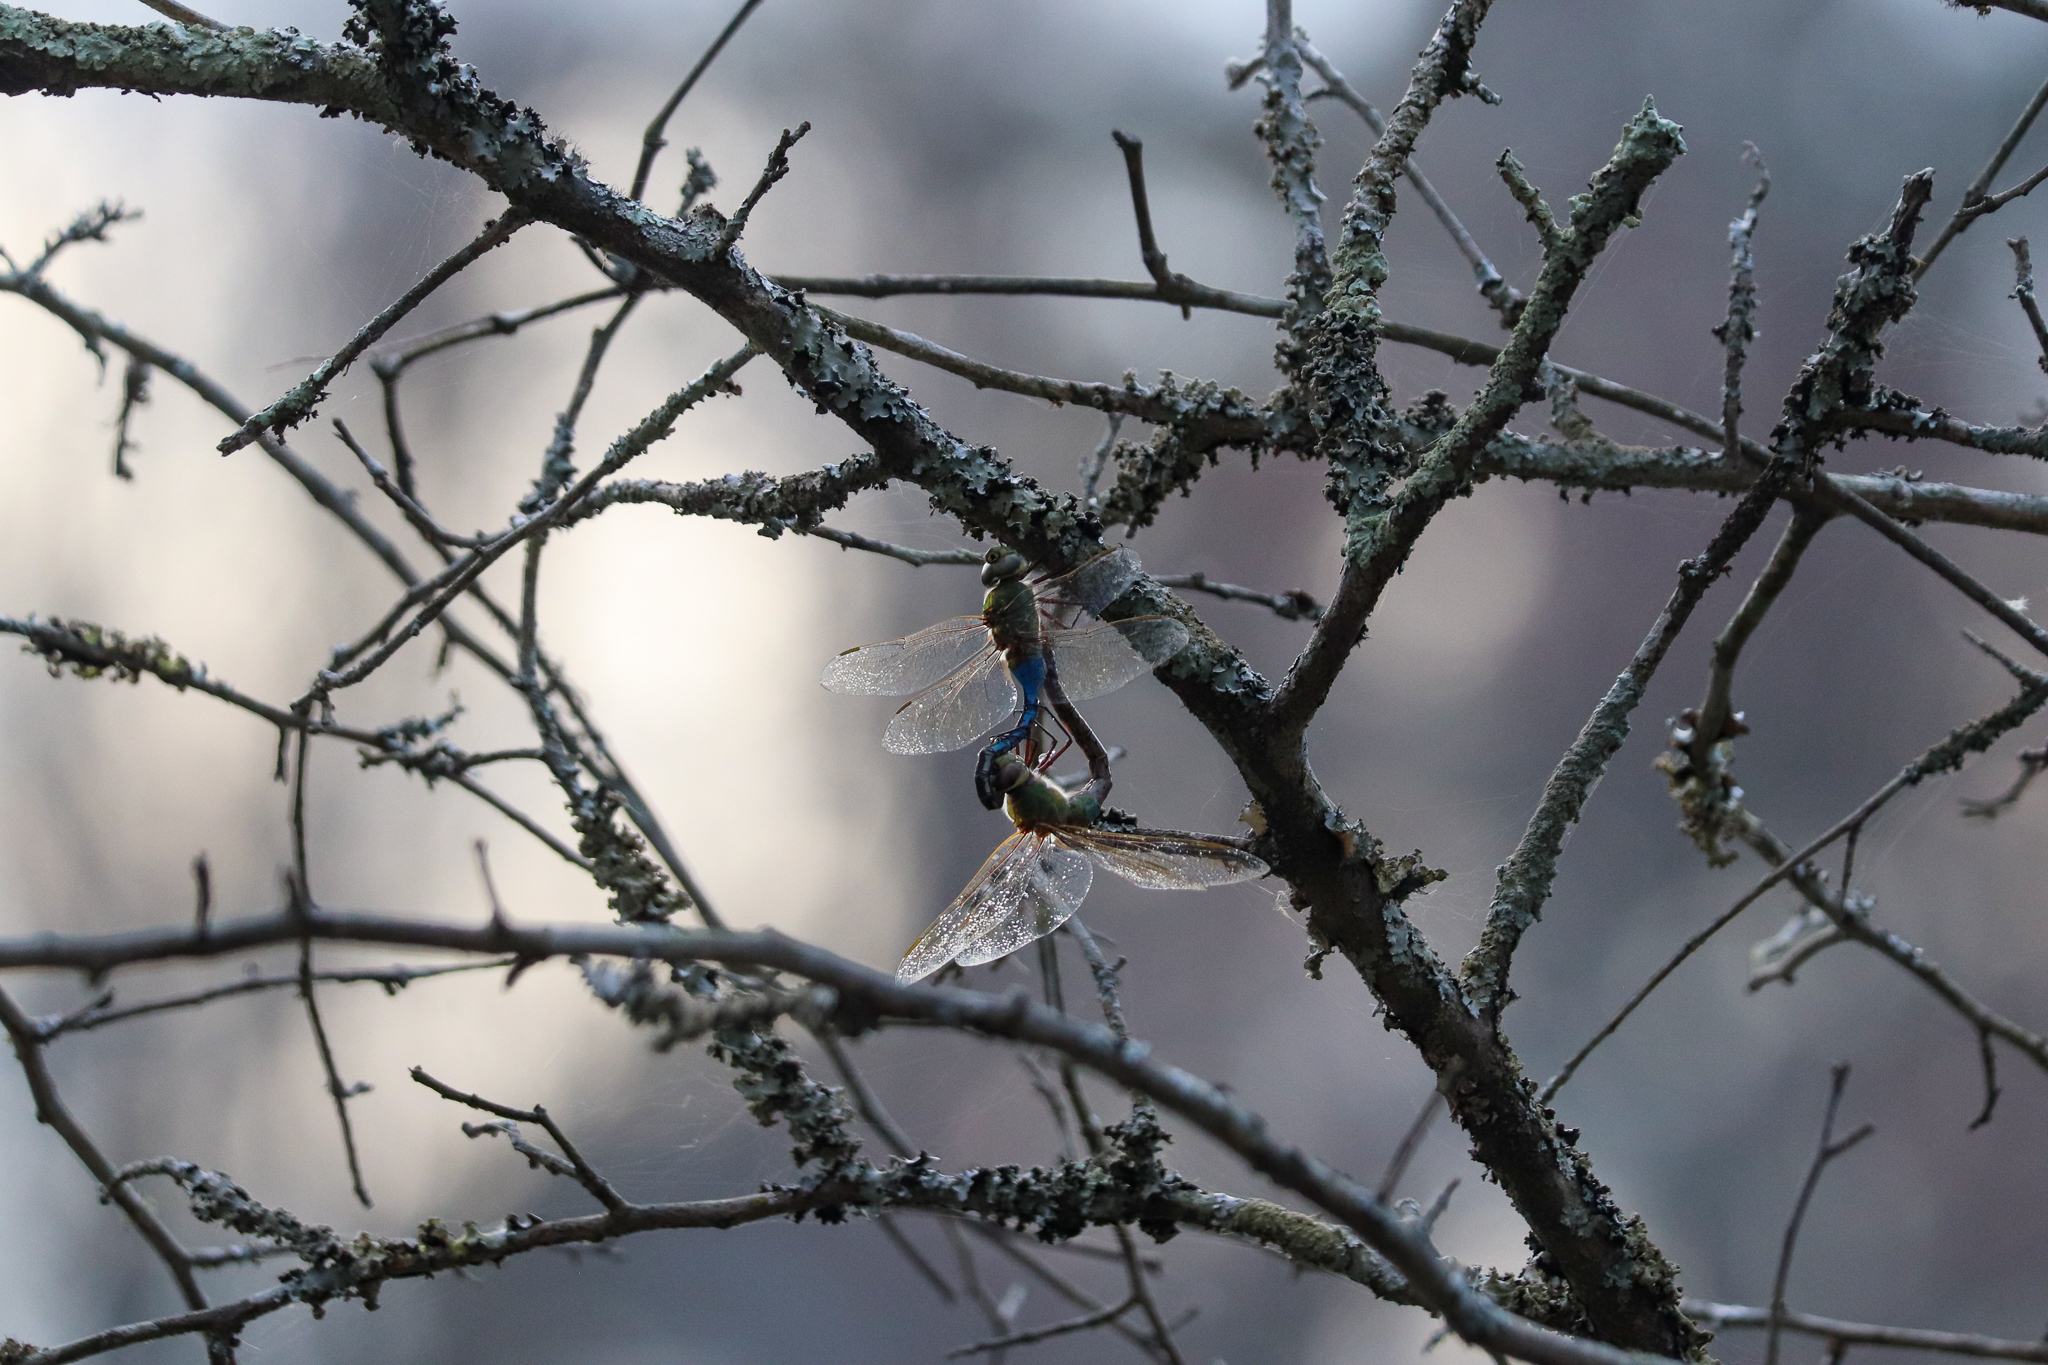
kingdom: Animalia
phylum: Arthropoda
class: Insecta
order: Odonata
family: Aeshnidae
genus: Anax
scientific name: Anax junius
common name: Common green darner
